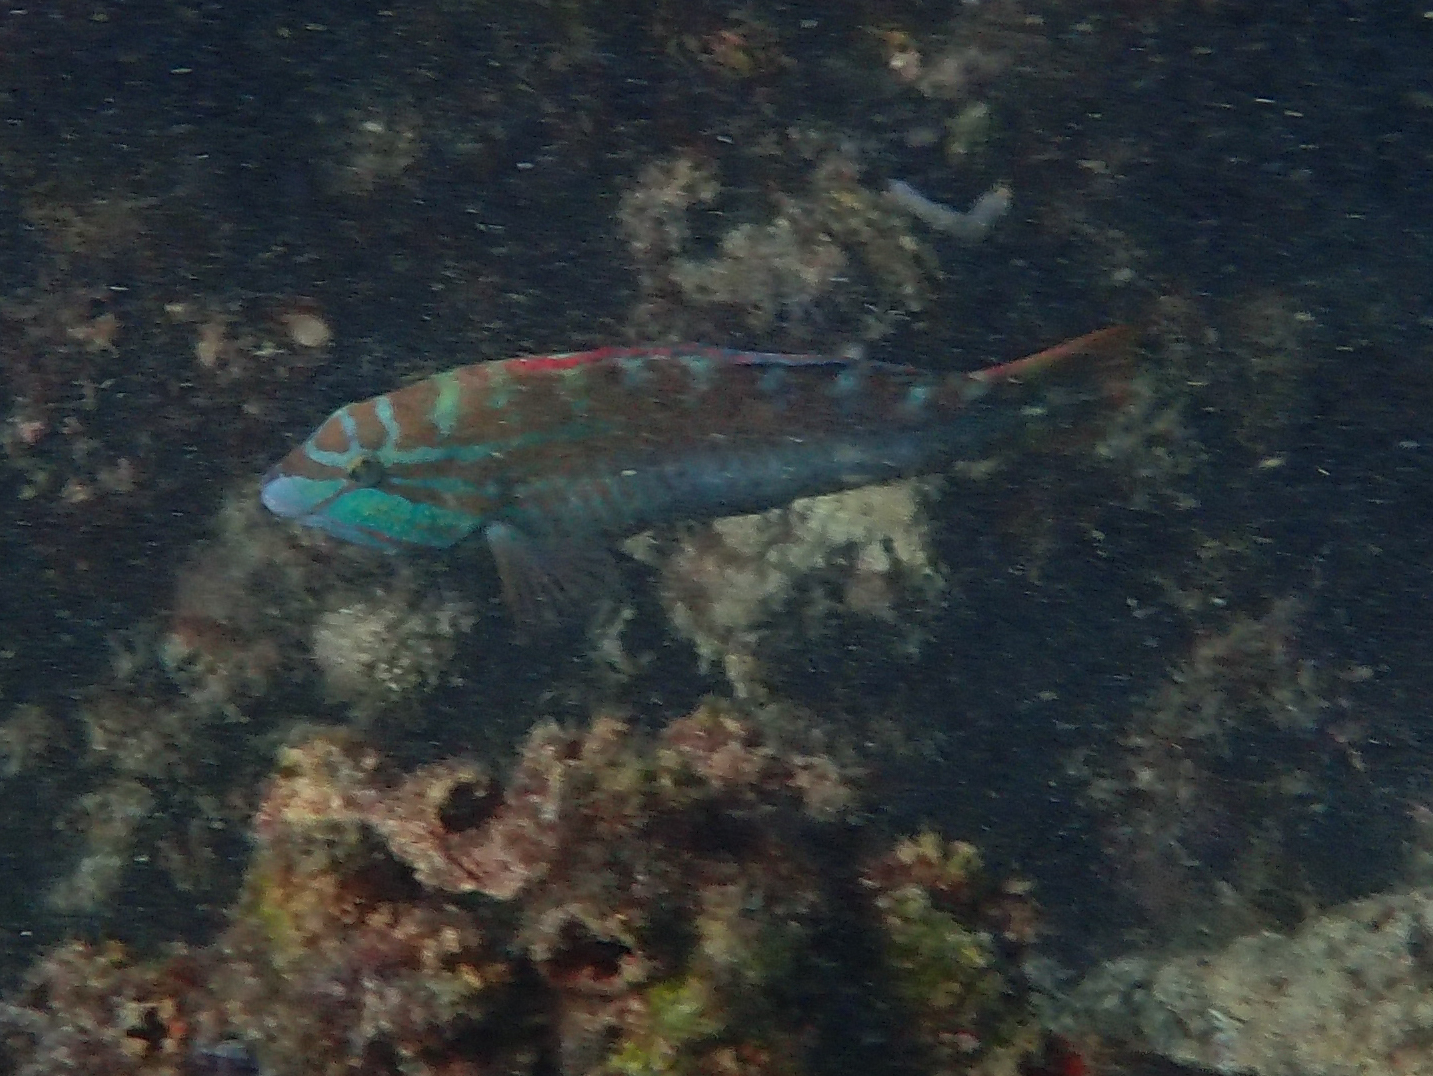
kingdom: Animalia
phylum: Chordata
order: Perciformes
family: Labridae
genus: Pseudolabrus
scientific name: Pseudolabrus guentheri
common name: Günther's wrasse
